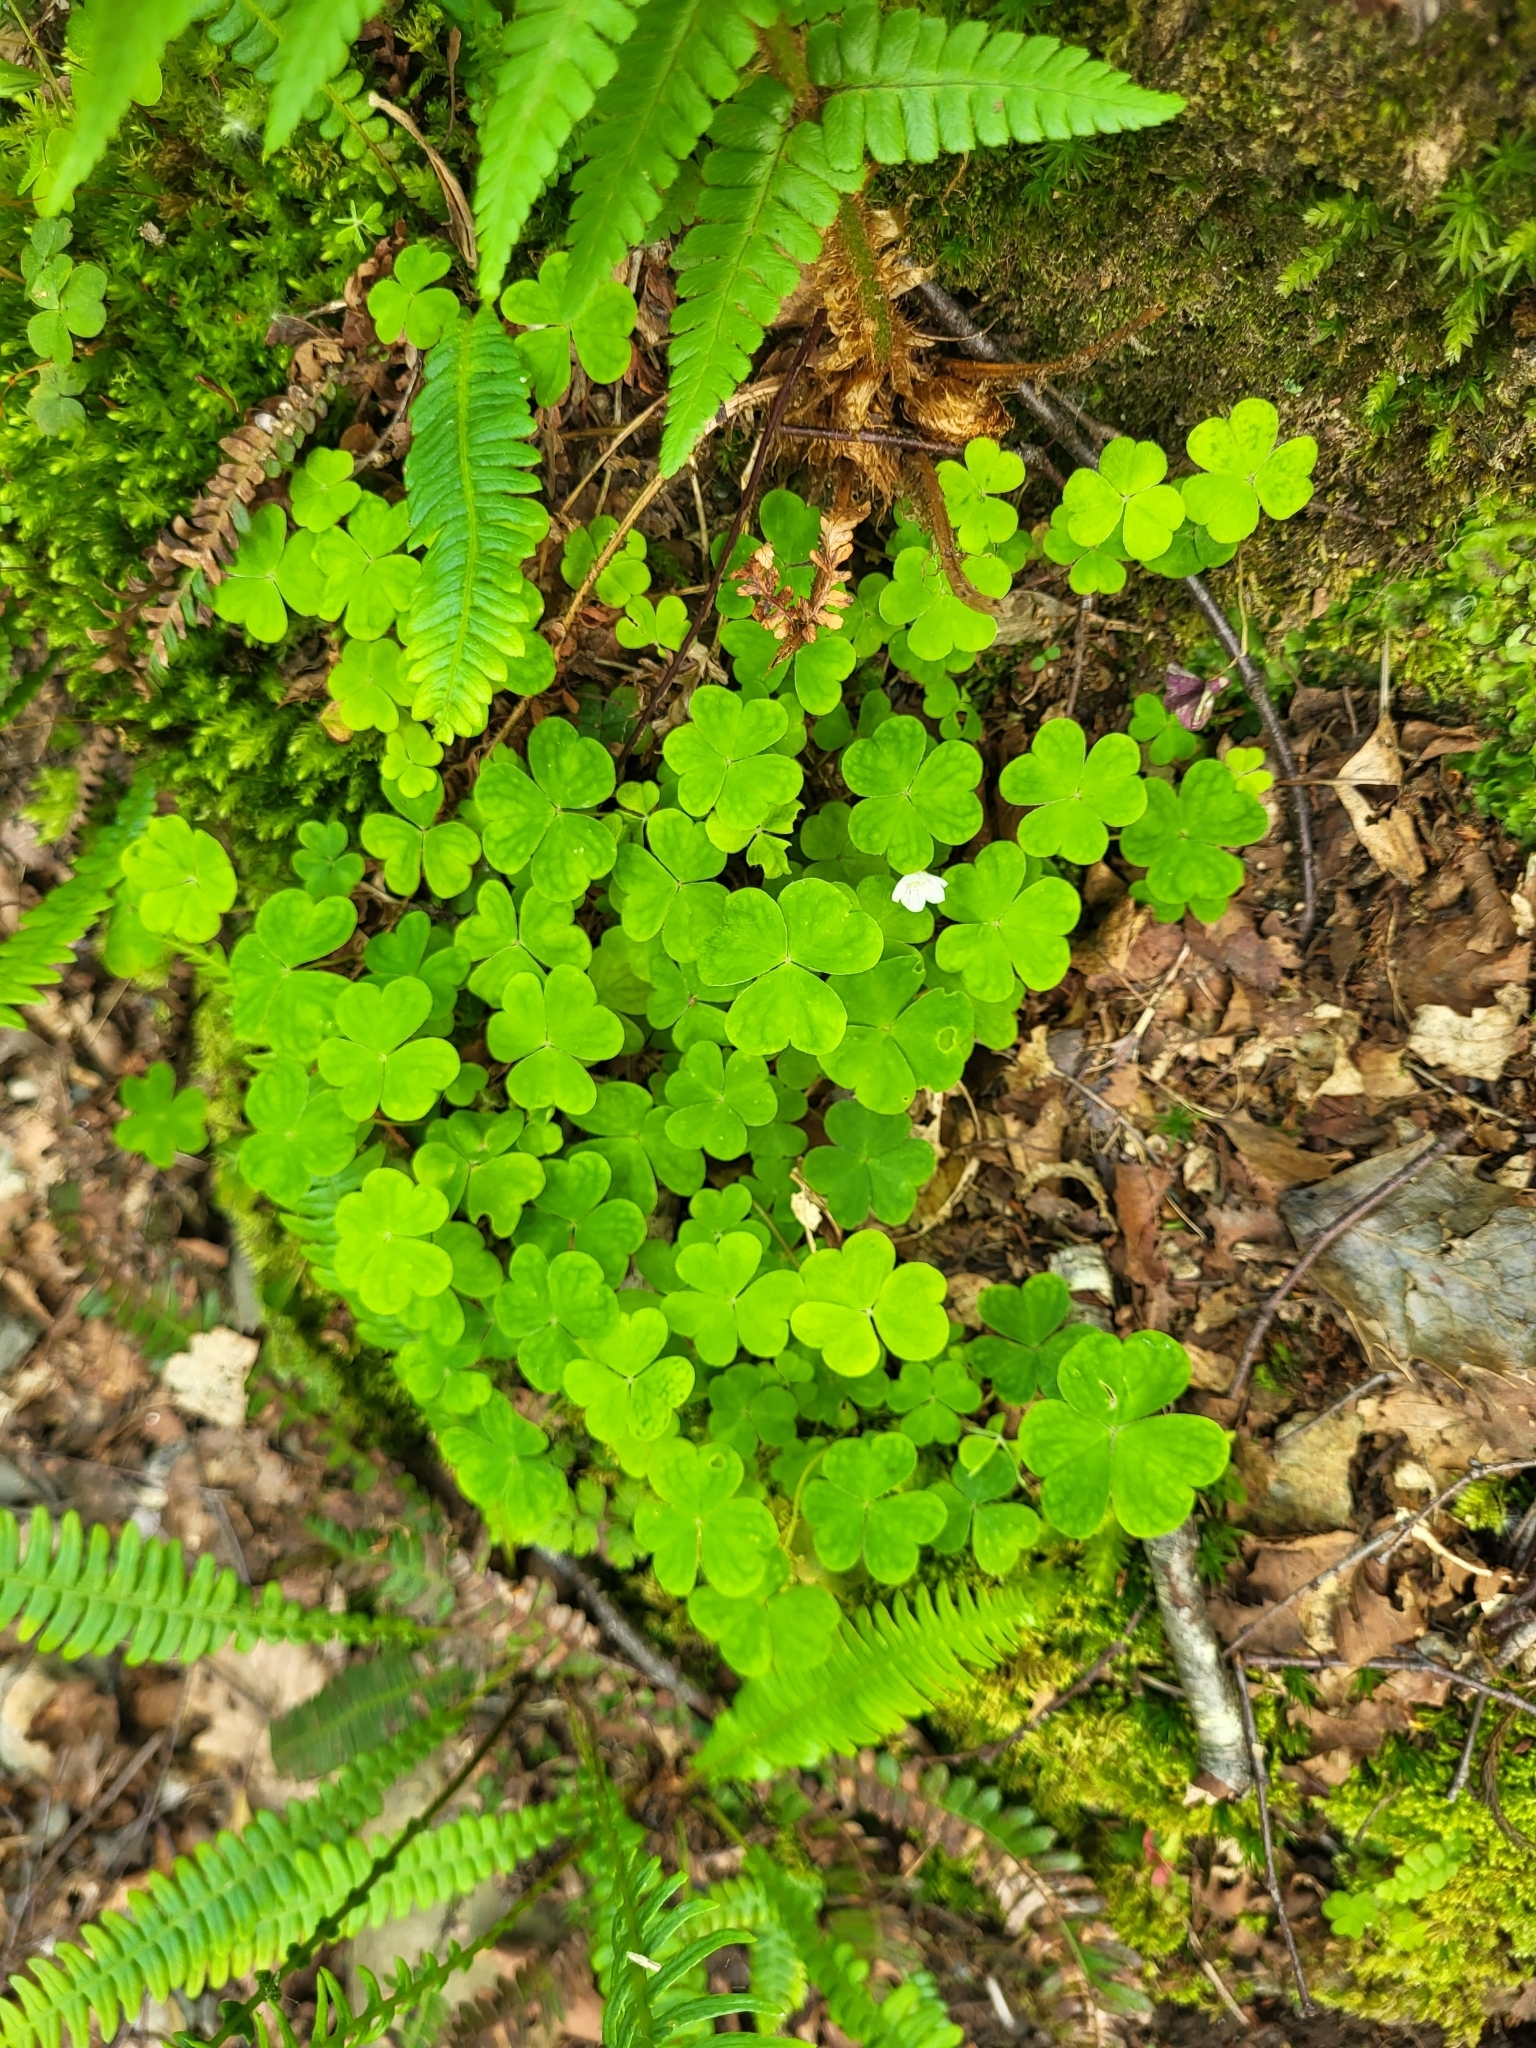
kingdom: Plantae
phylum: Tracheophyta
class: Magnoliopsida
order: Oxalidales
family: Oxalidaceae
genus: Oxalis
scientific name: Oxalis acetosella
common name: Wood-sorrel
